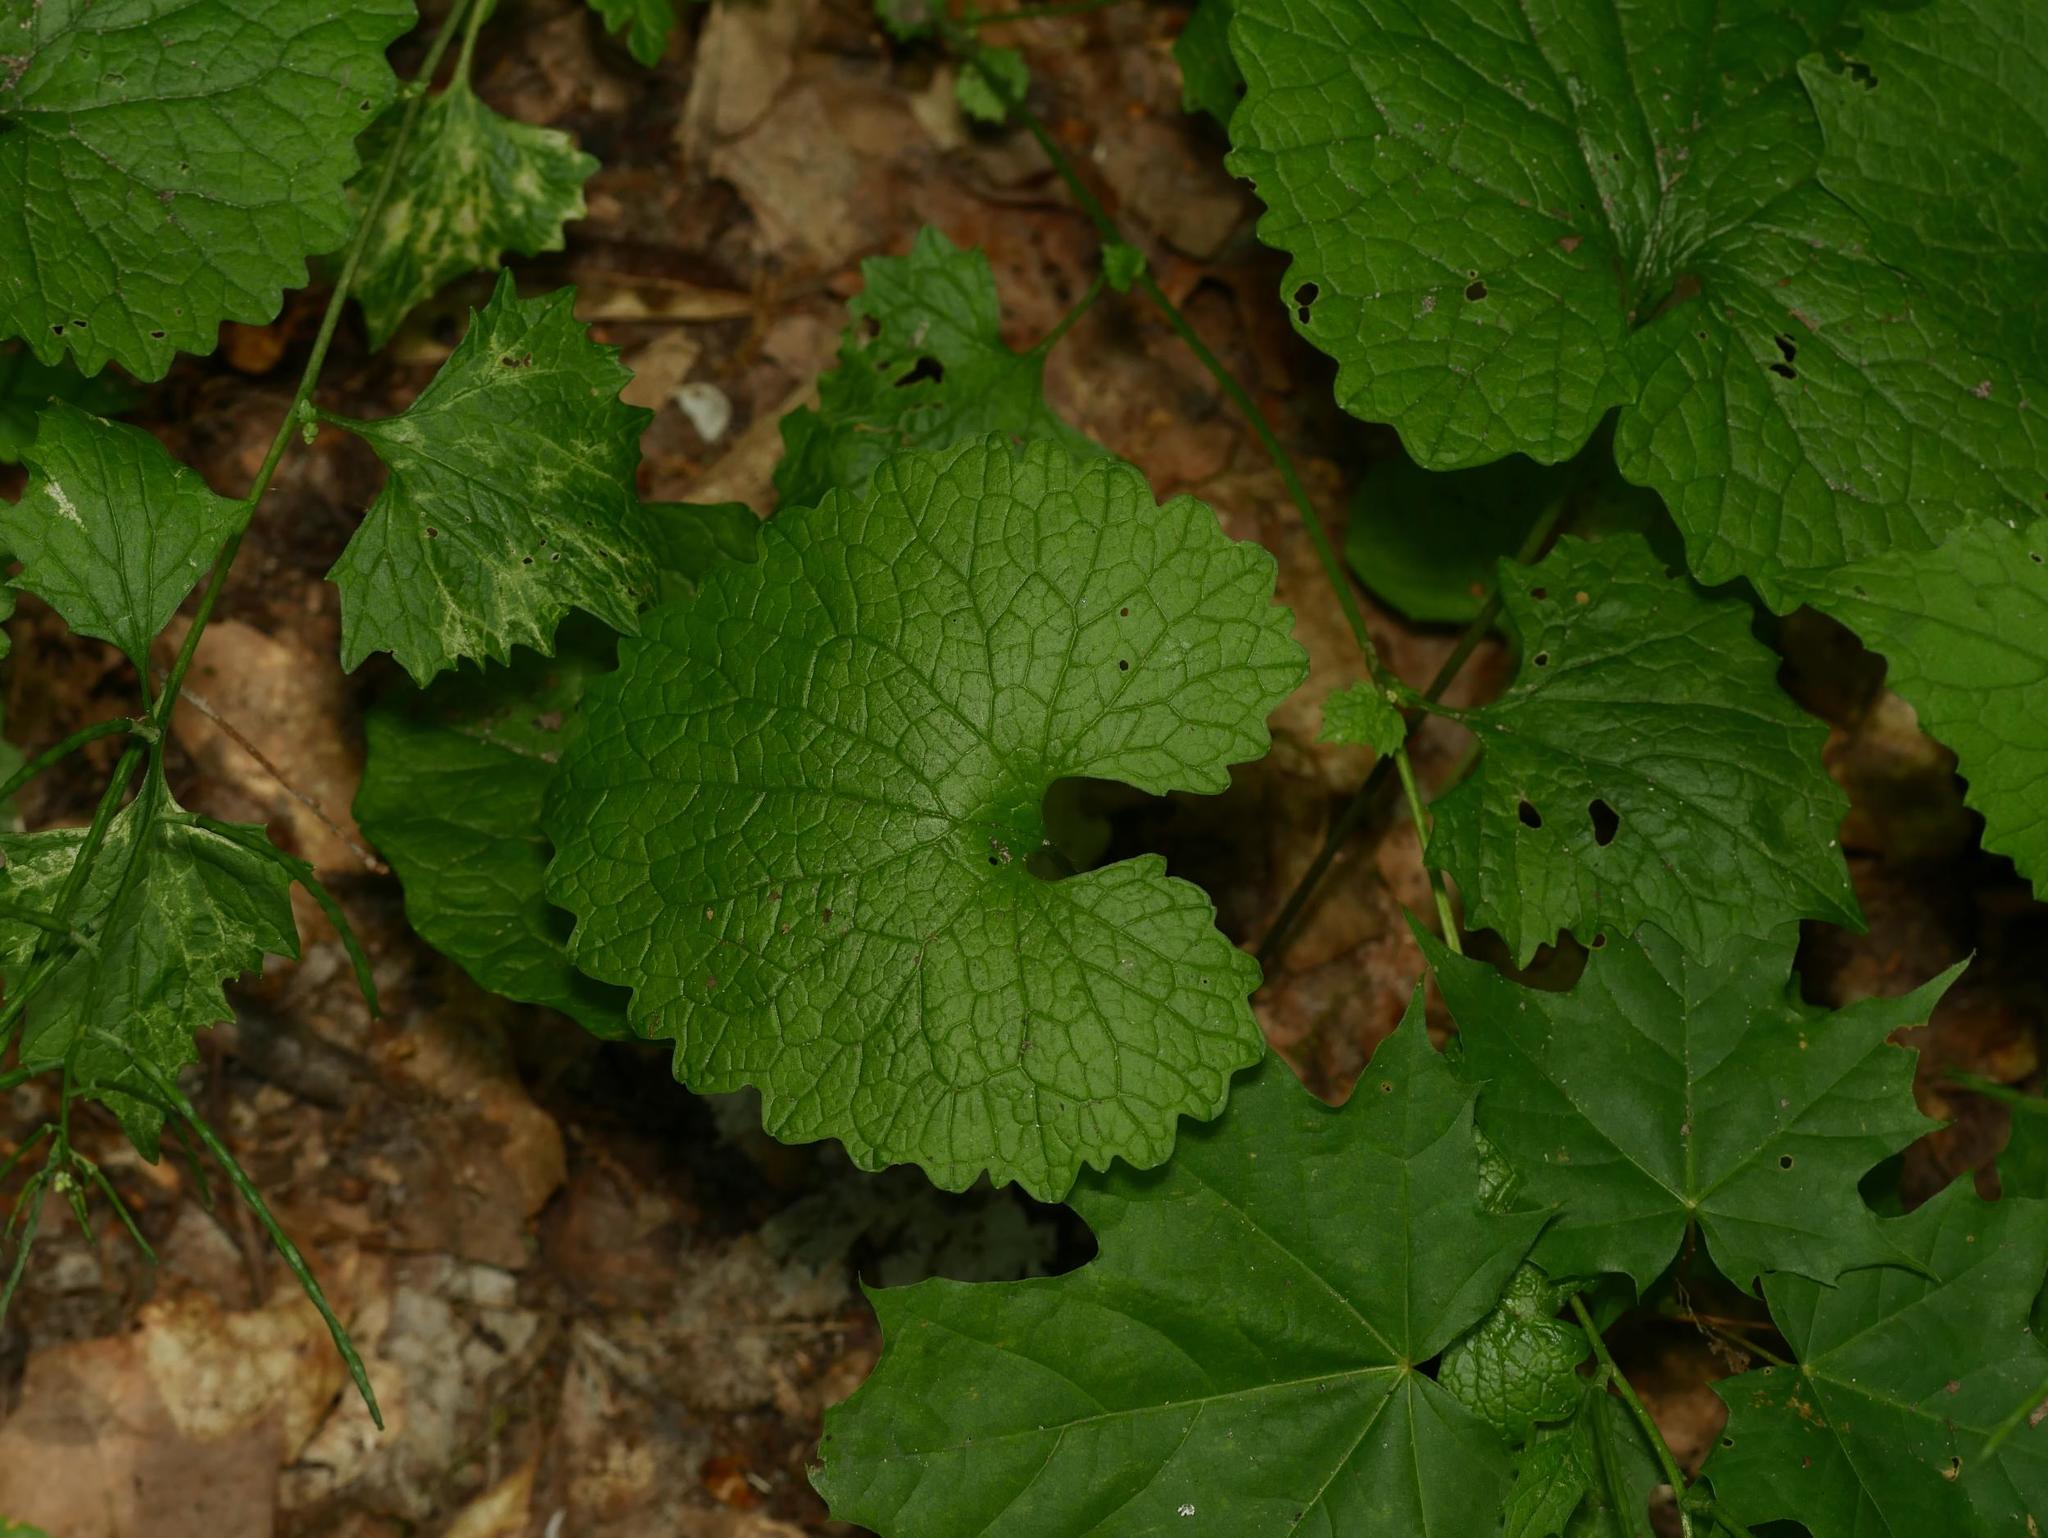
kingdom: Plantae
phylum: Tracheophyta
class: Magnoliopsida
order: Brassicales
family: Brassicaceae
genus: Alliaria
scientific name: Alliaria petiolata
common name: Garlic mustard
